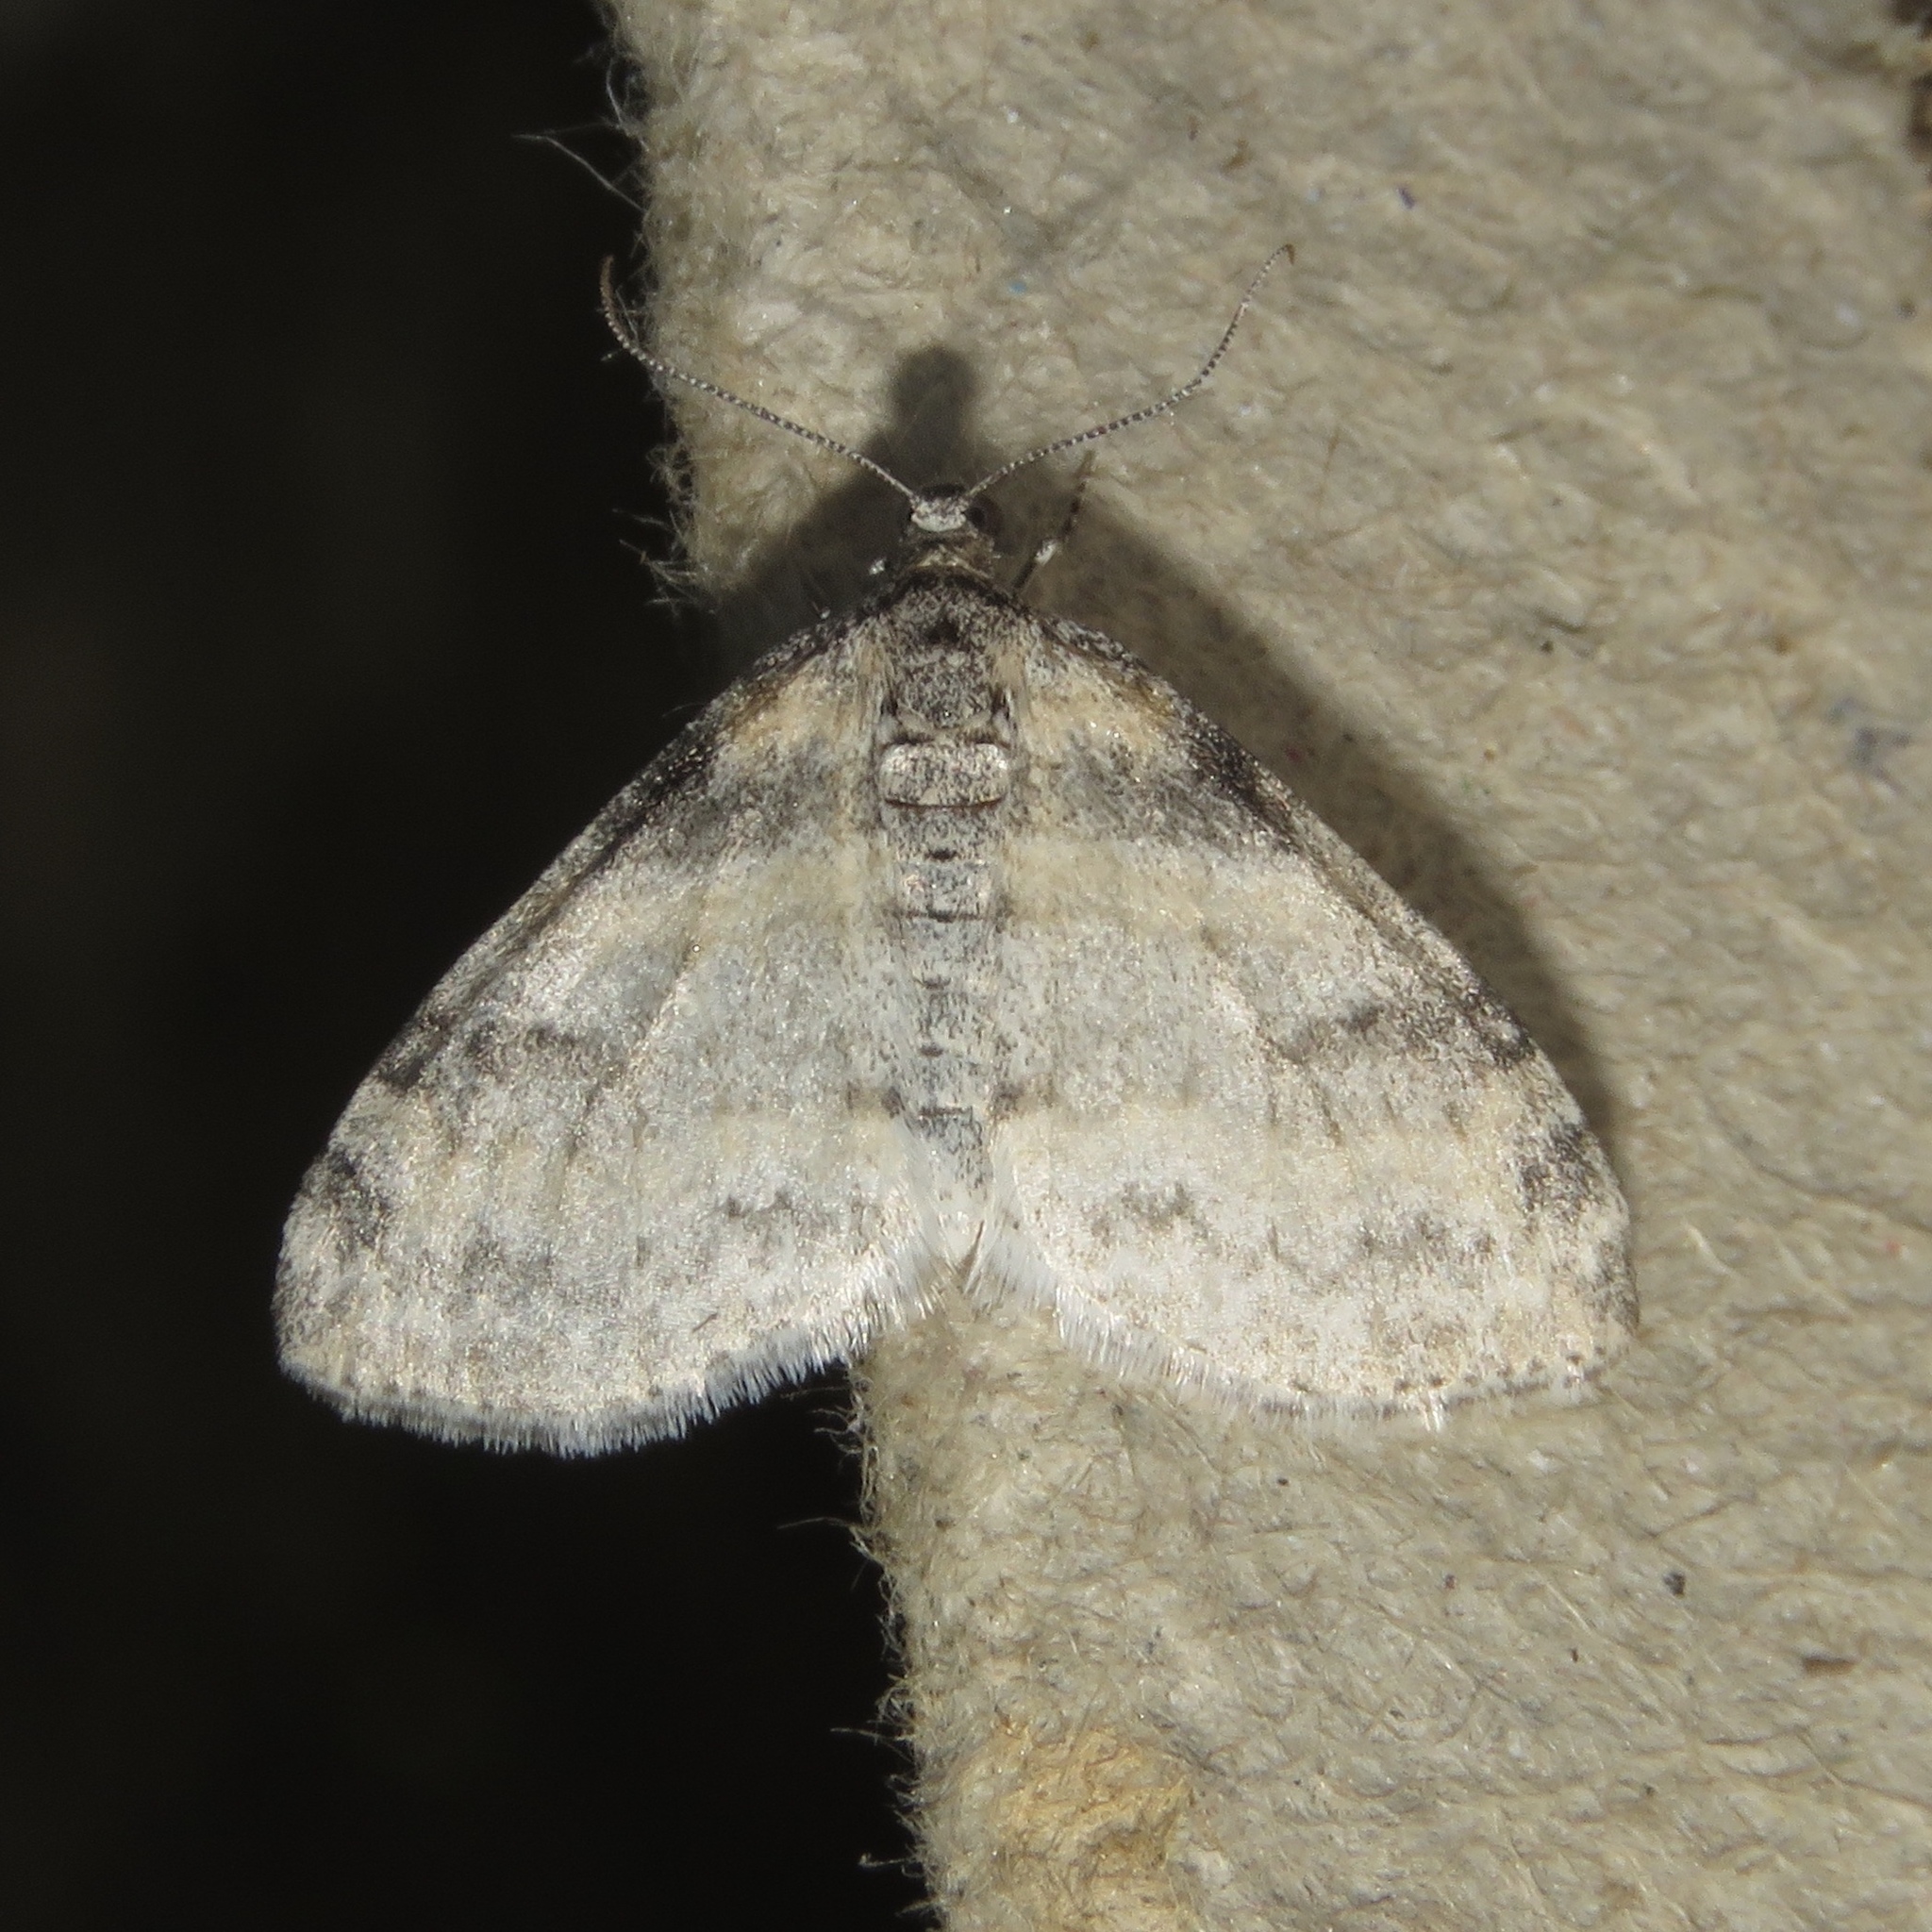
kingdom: Animalia
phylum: Arthropoda
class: Insecta
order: Lepidoptera
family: Geometridae
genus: Lobophora
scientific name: Lobophora nivigerata
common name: Powdered bigwing
